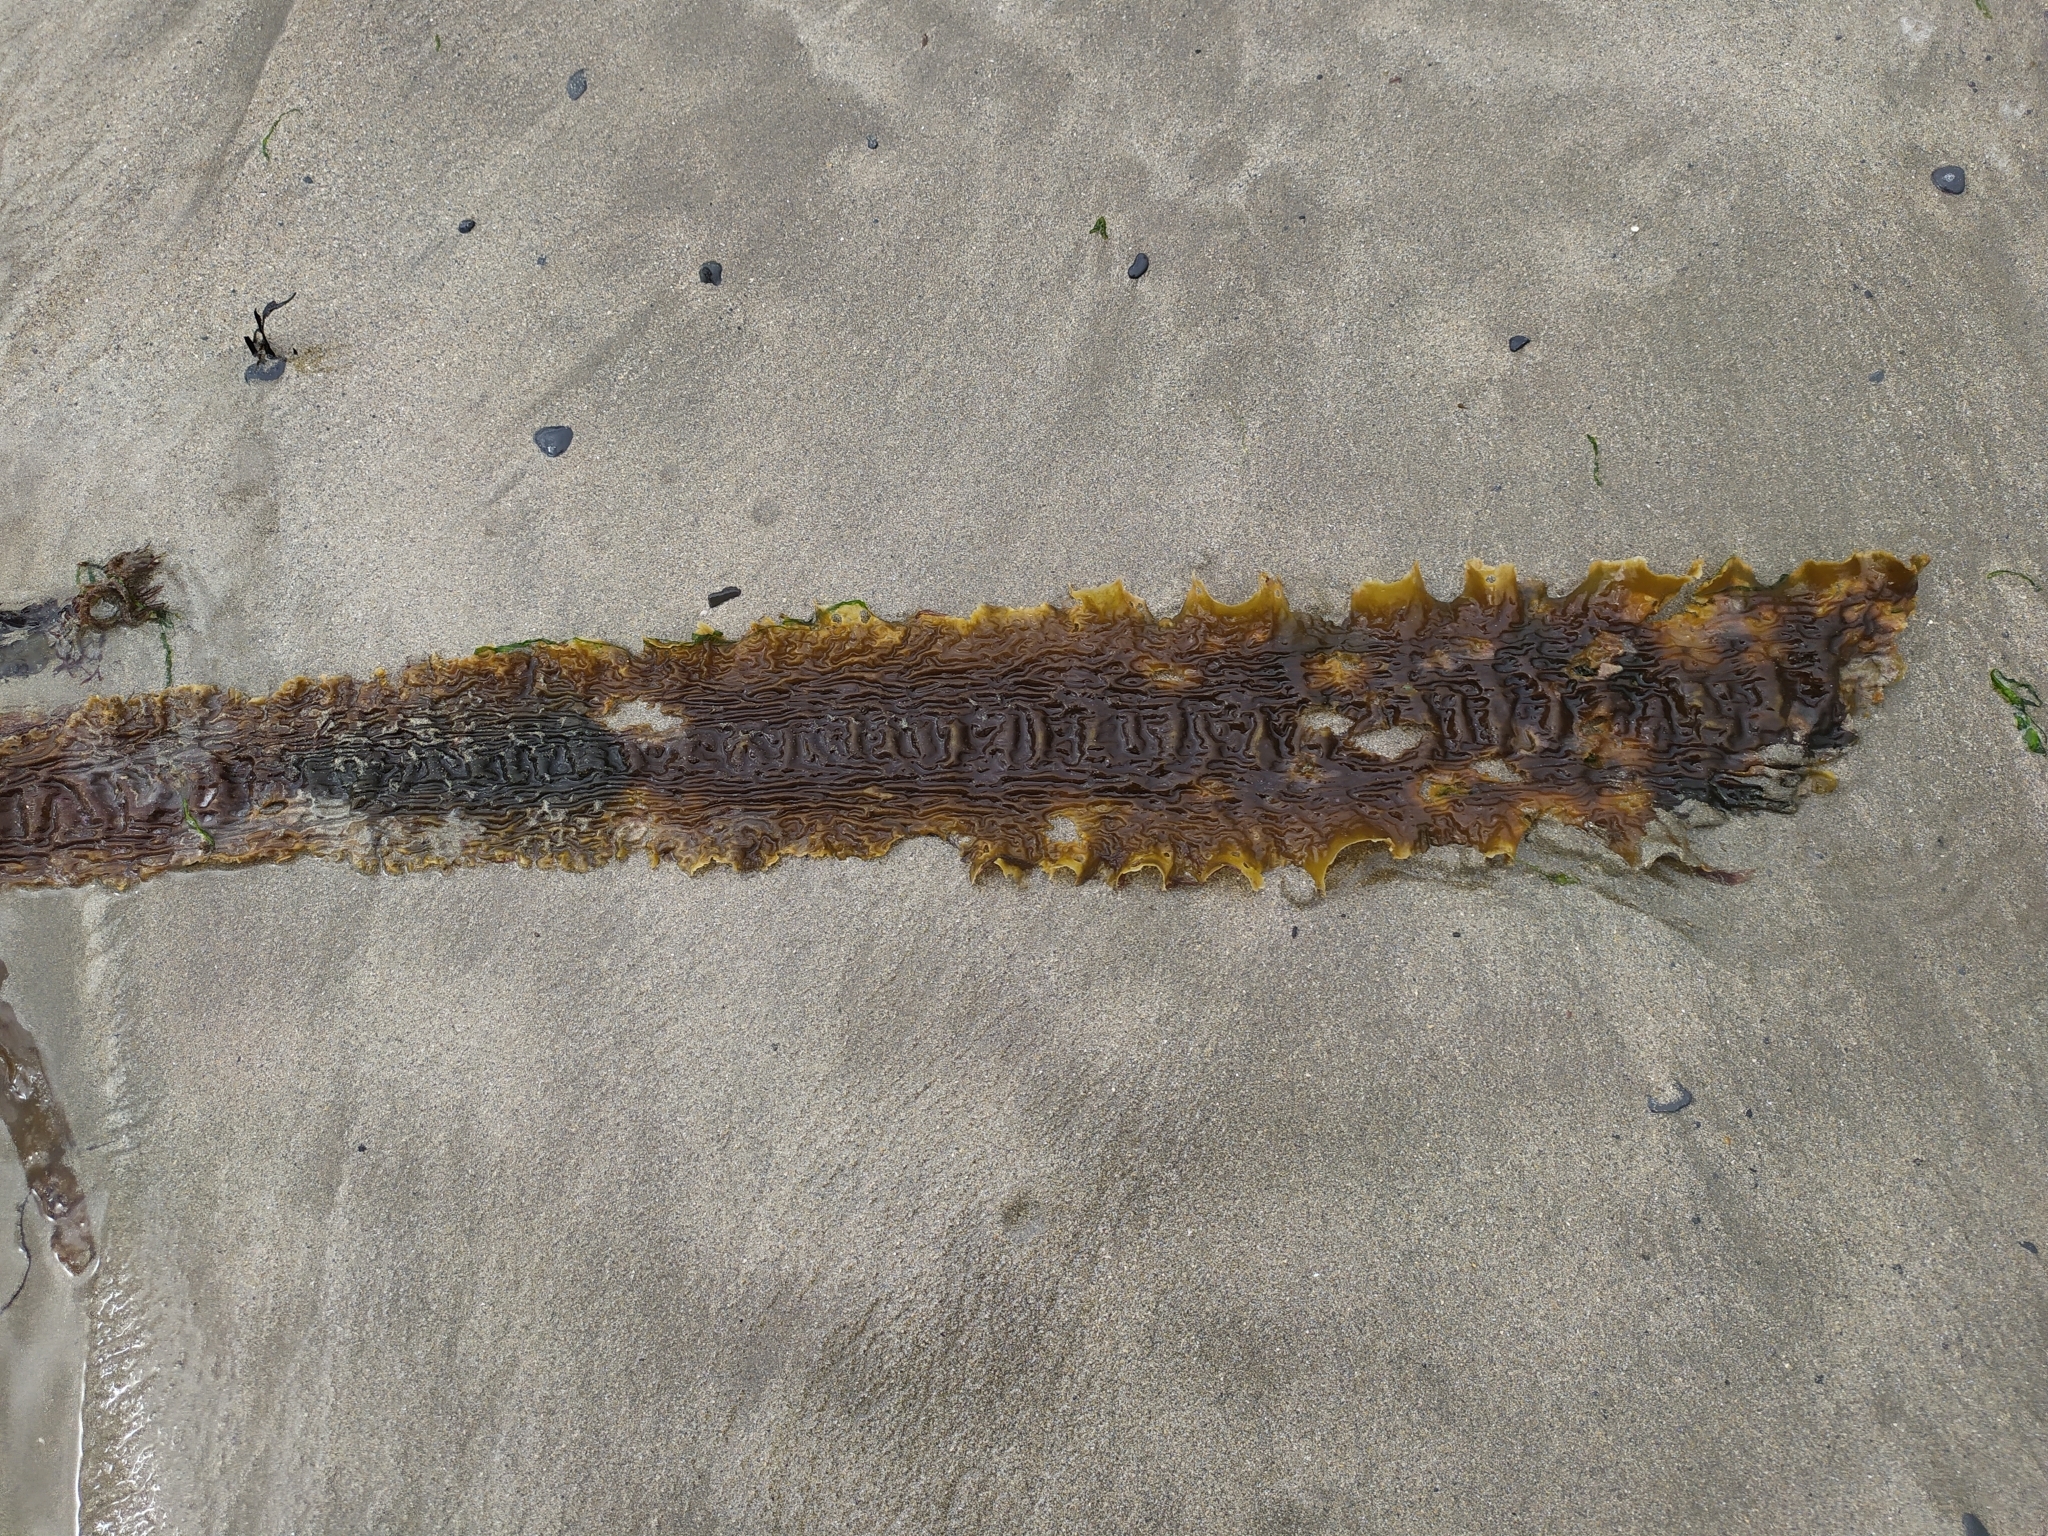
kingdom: Chromista
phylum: Ochrophyta
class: Phaeophyceae
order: Laminariales
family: Laminariaceae
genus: Saccharina
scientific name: Saccharina latissima
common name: Poor man's weather glass
